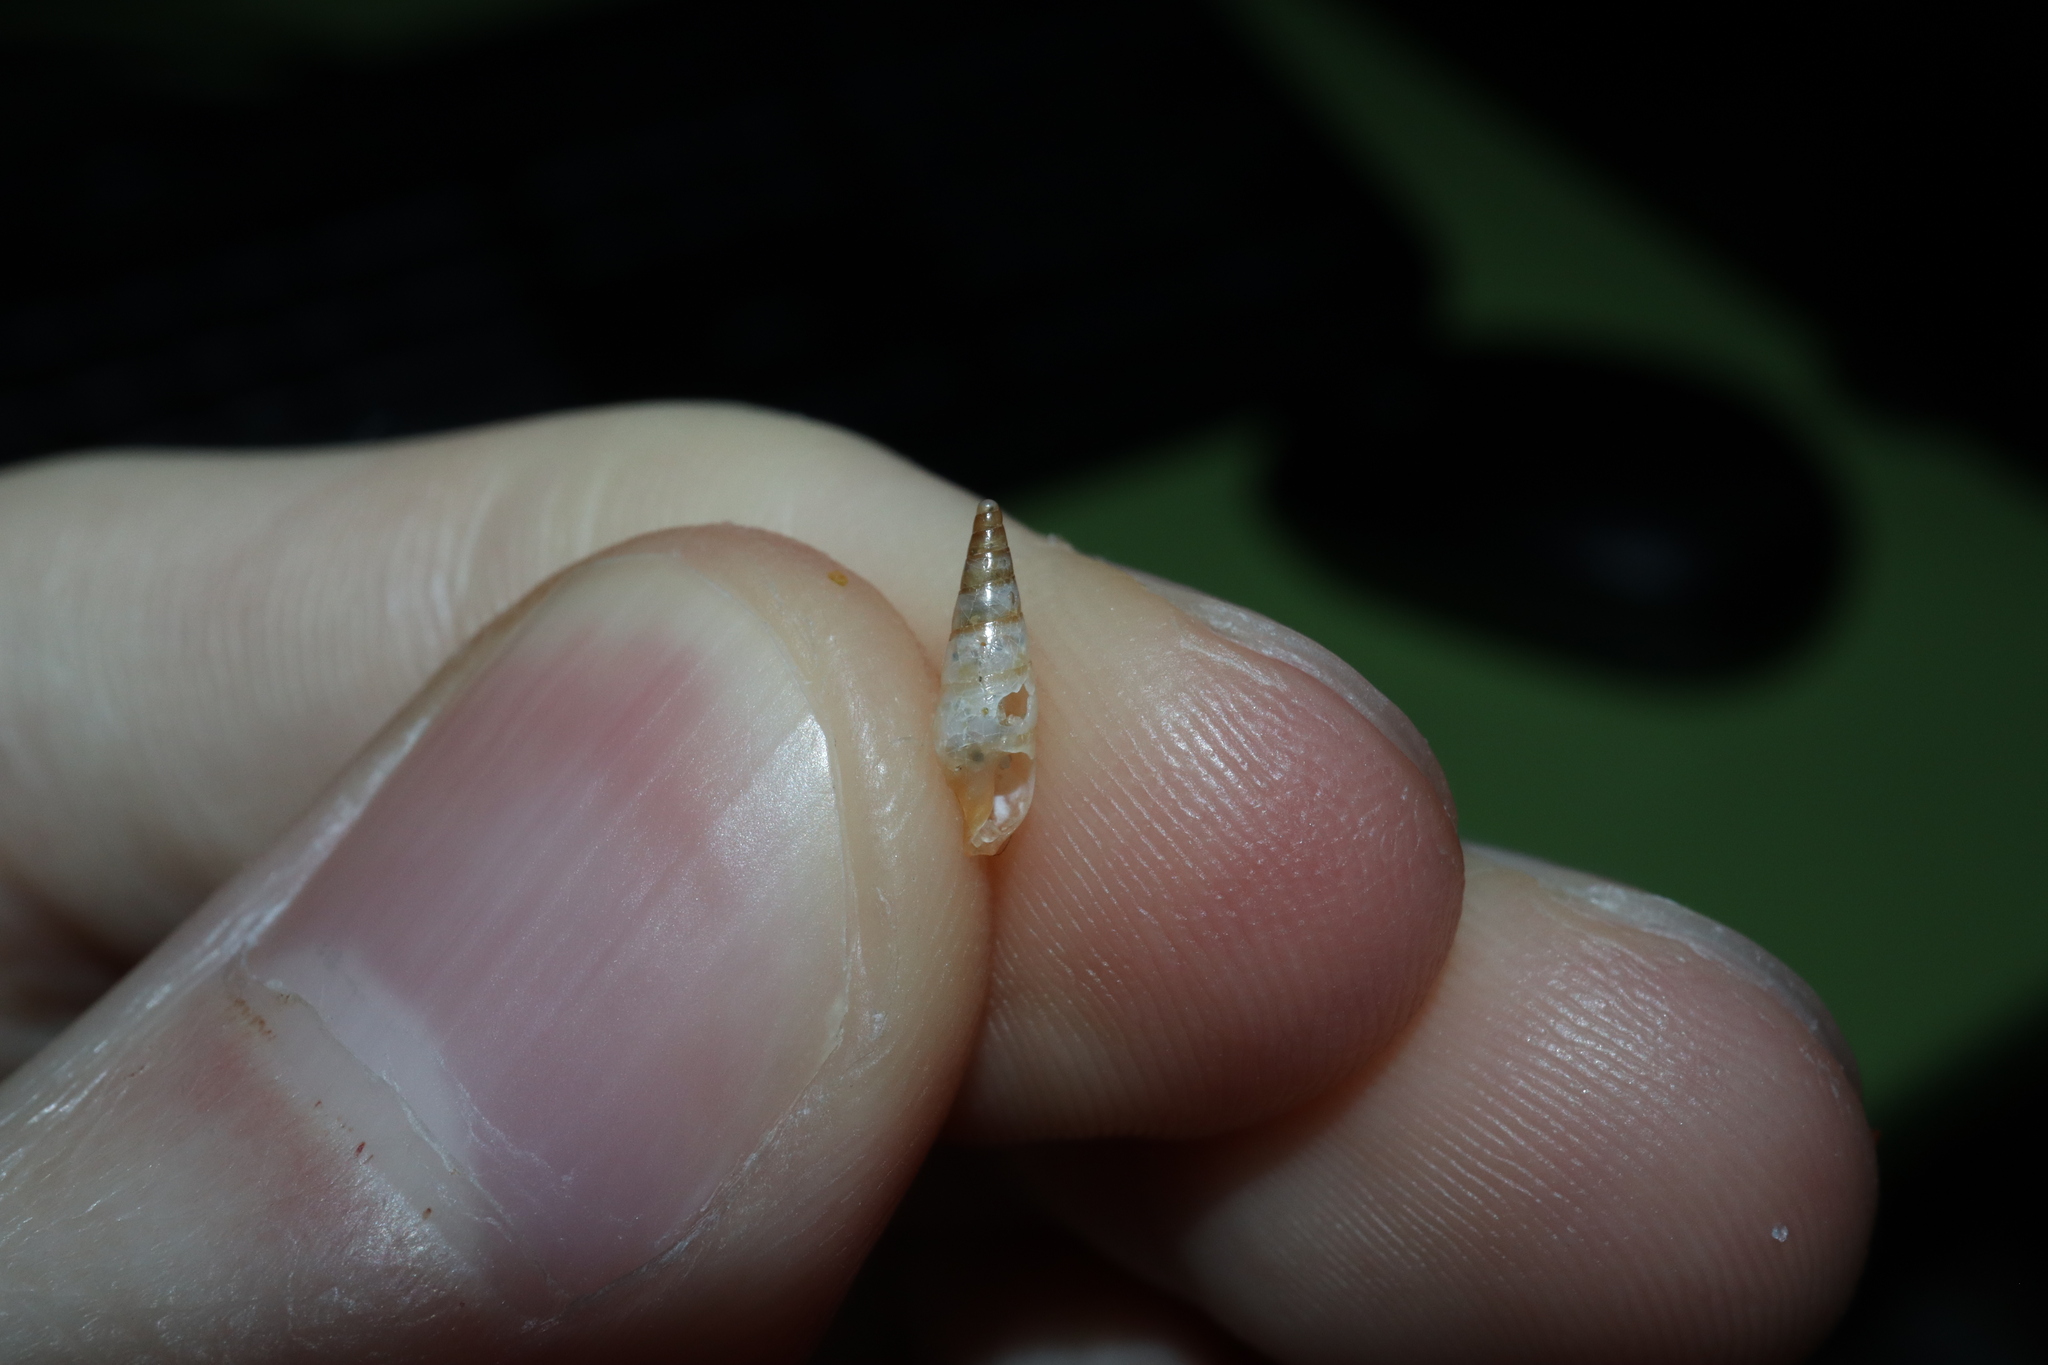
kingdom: Animalia
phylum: Mollusca
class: Gastropoda
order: Neogastropoda
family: Columbellidae
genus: Zella
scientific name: Zella beddomei
